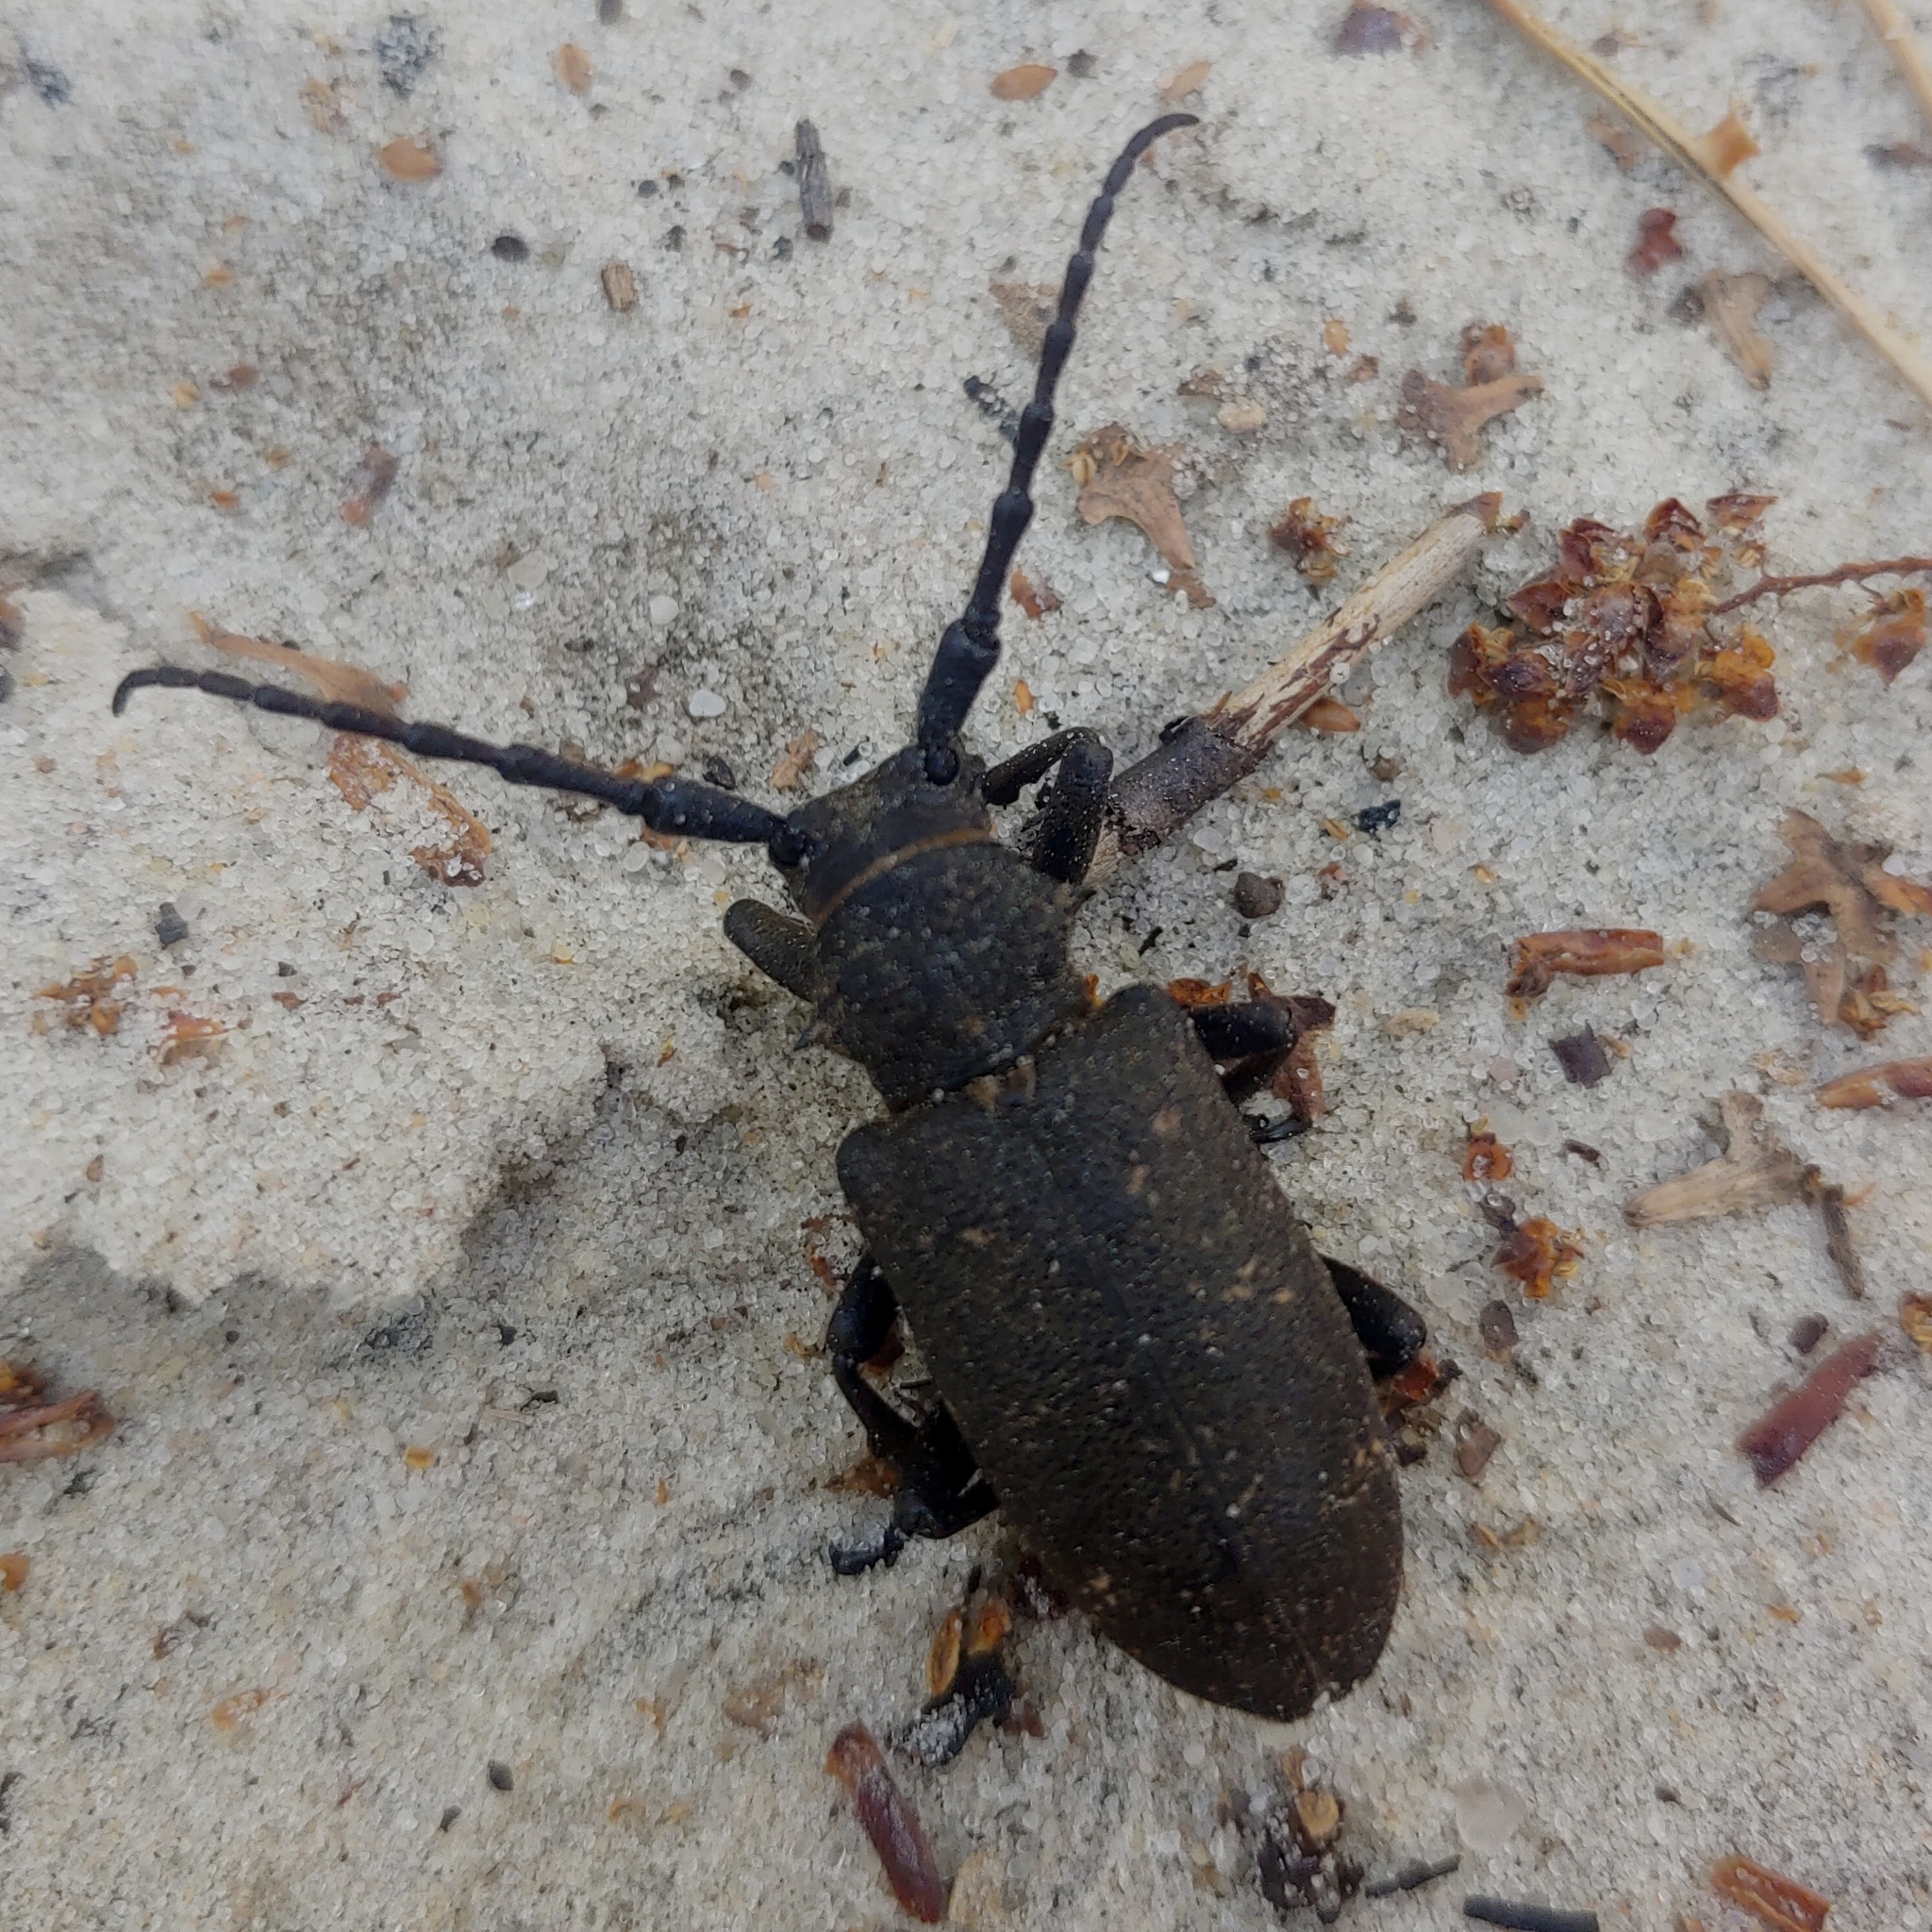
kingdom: Animalia
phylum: Arthropoda
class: Insecta
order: Coleoptera
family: Cerambycidae
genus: Lamia
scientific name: Lamia textor
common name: Weaver beetle
